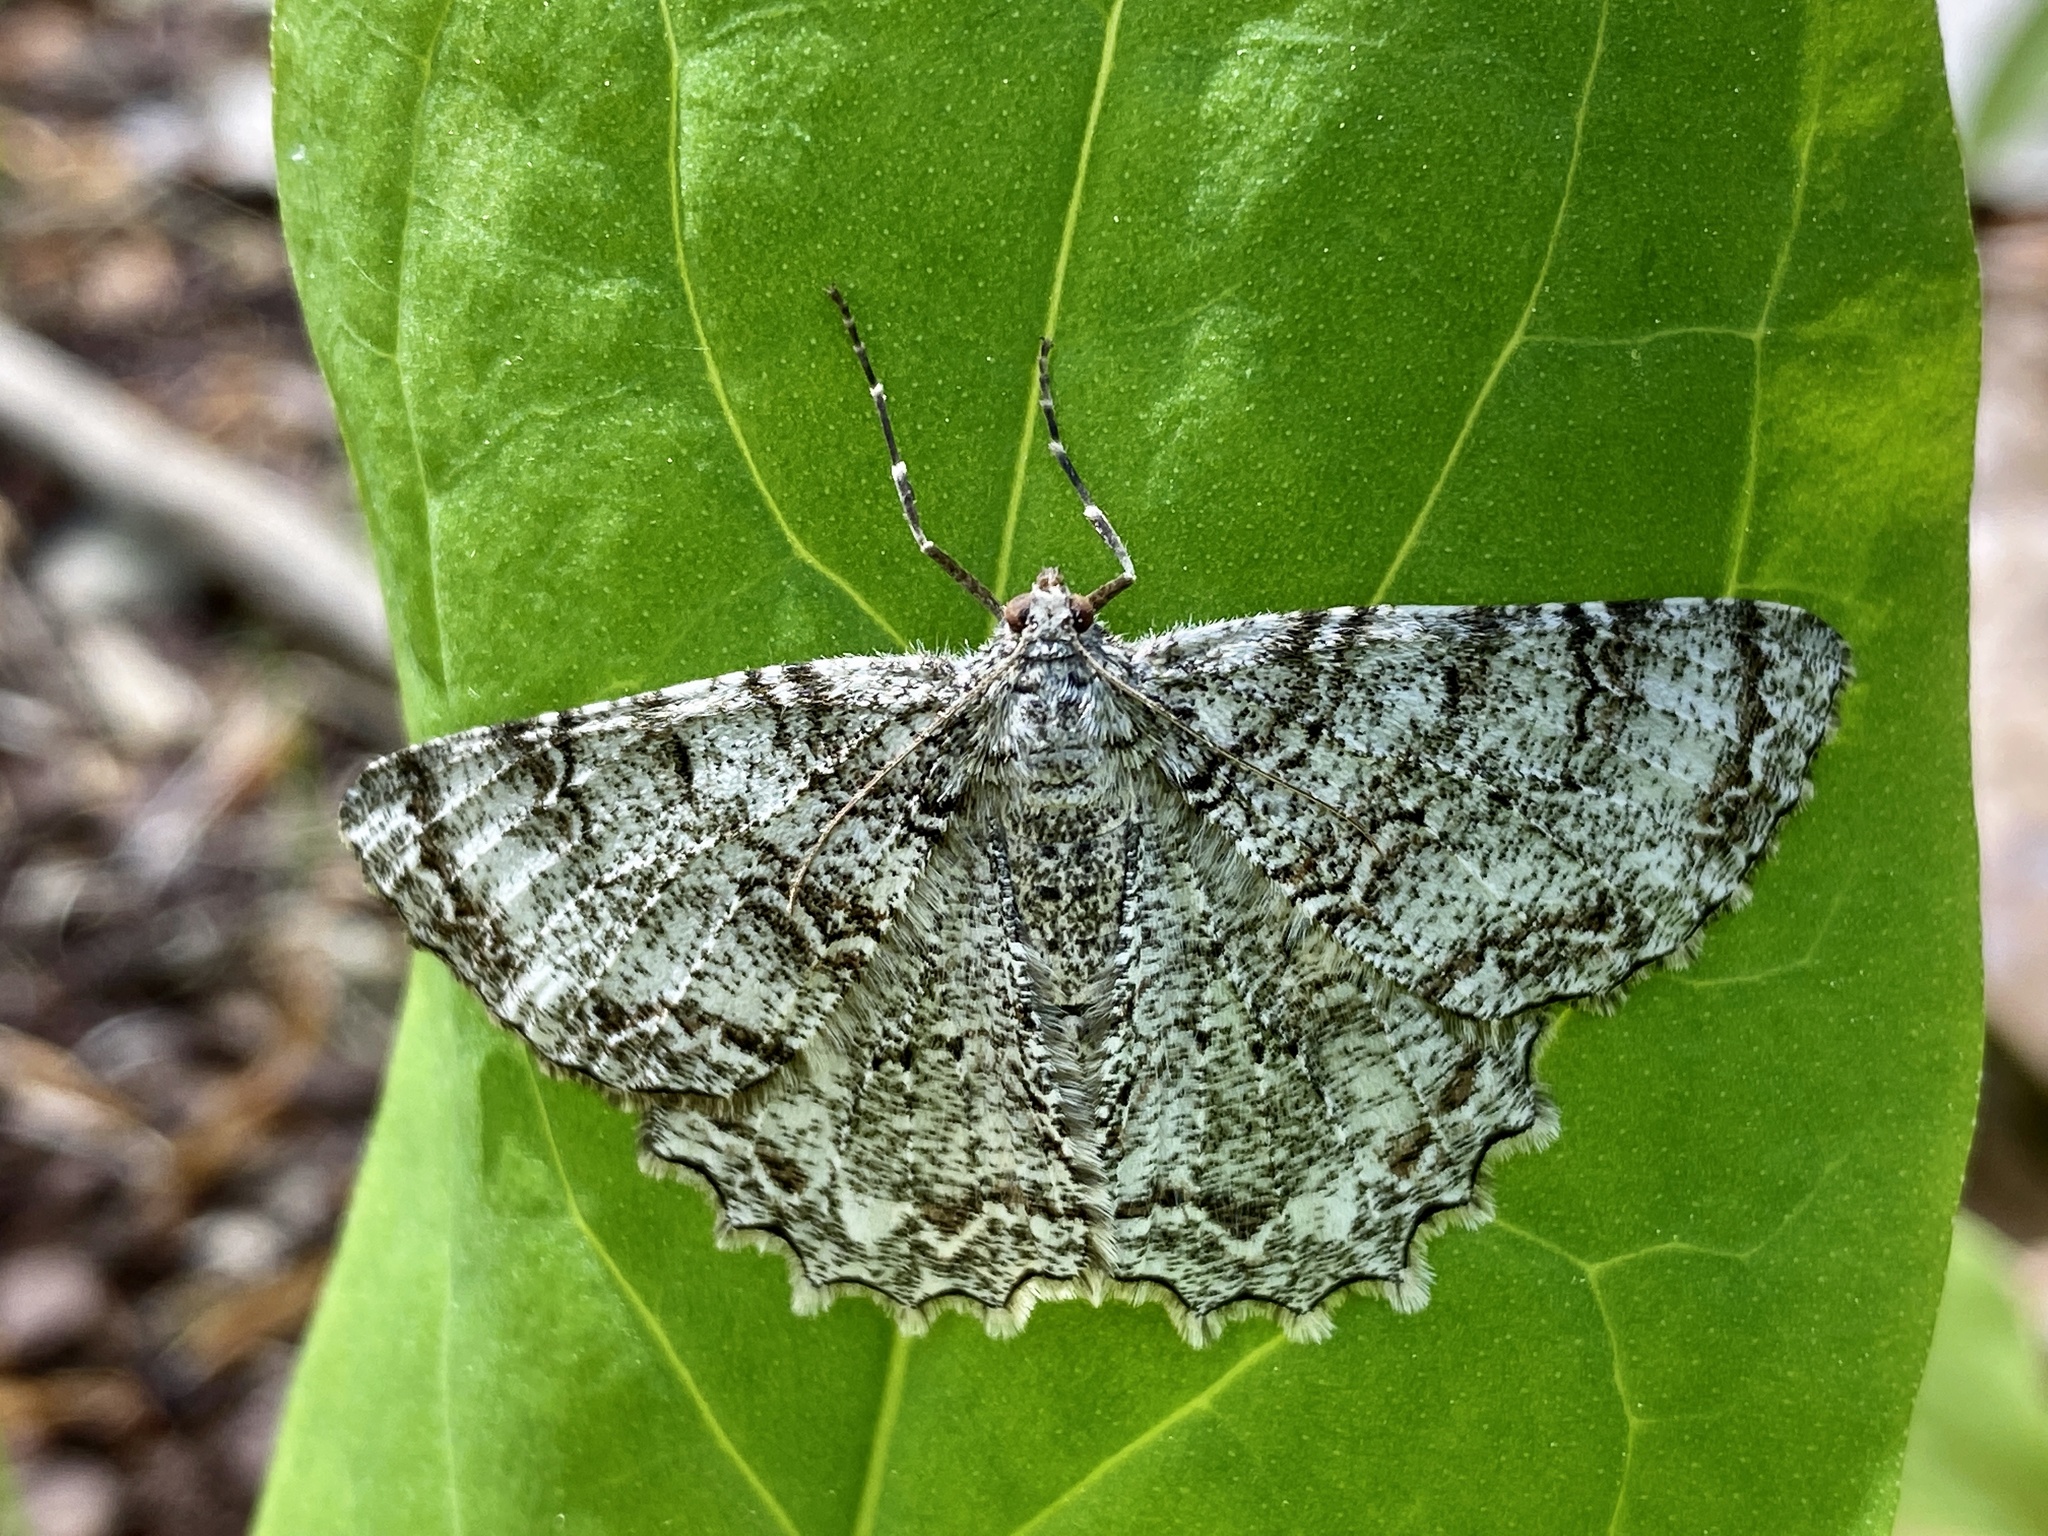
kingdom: Animalia
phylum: Arthropoda
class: Insecta
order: Lepidoptera
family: Geometridae
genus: Epimecis
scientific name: Epimecis hortaria
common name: Tulip-tree beauty
